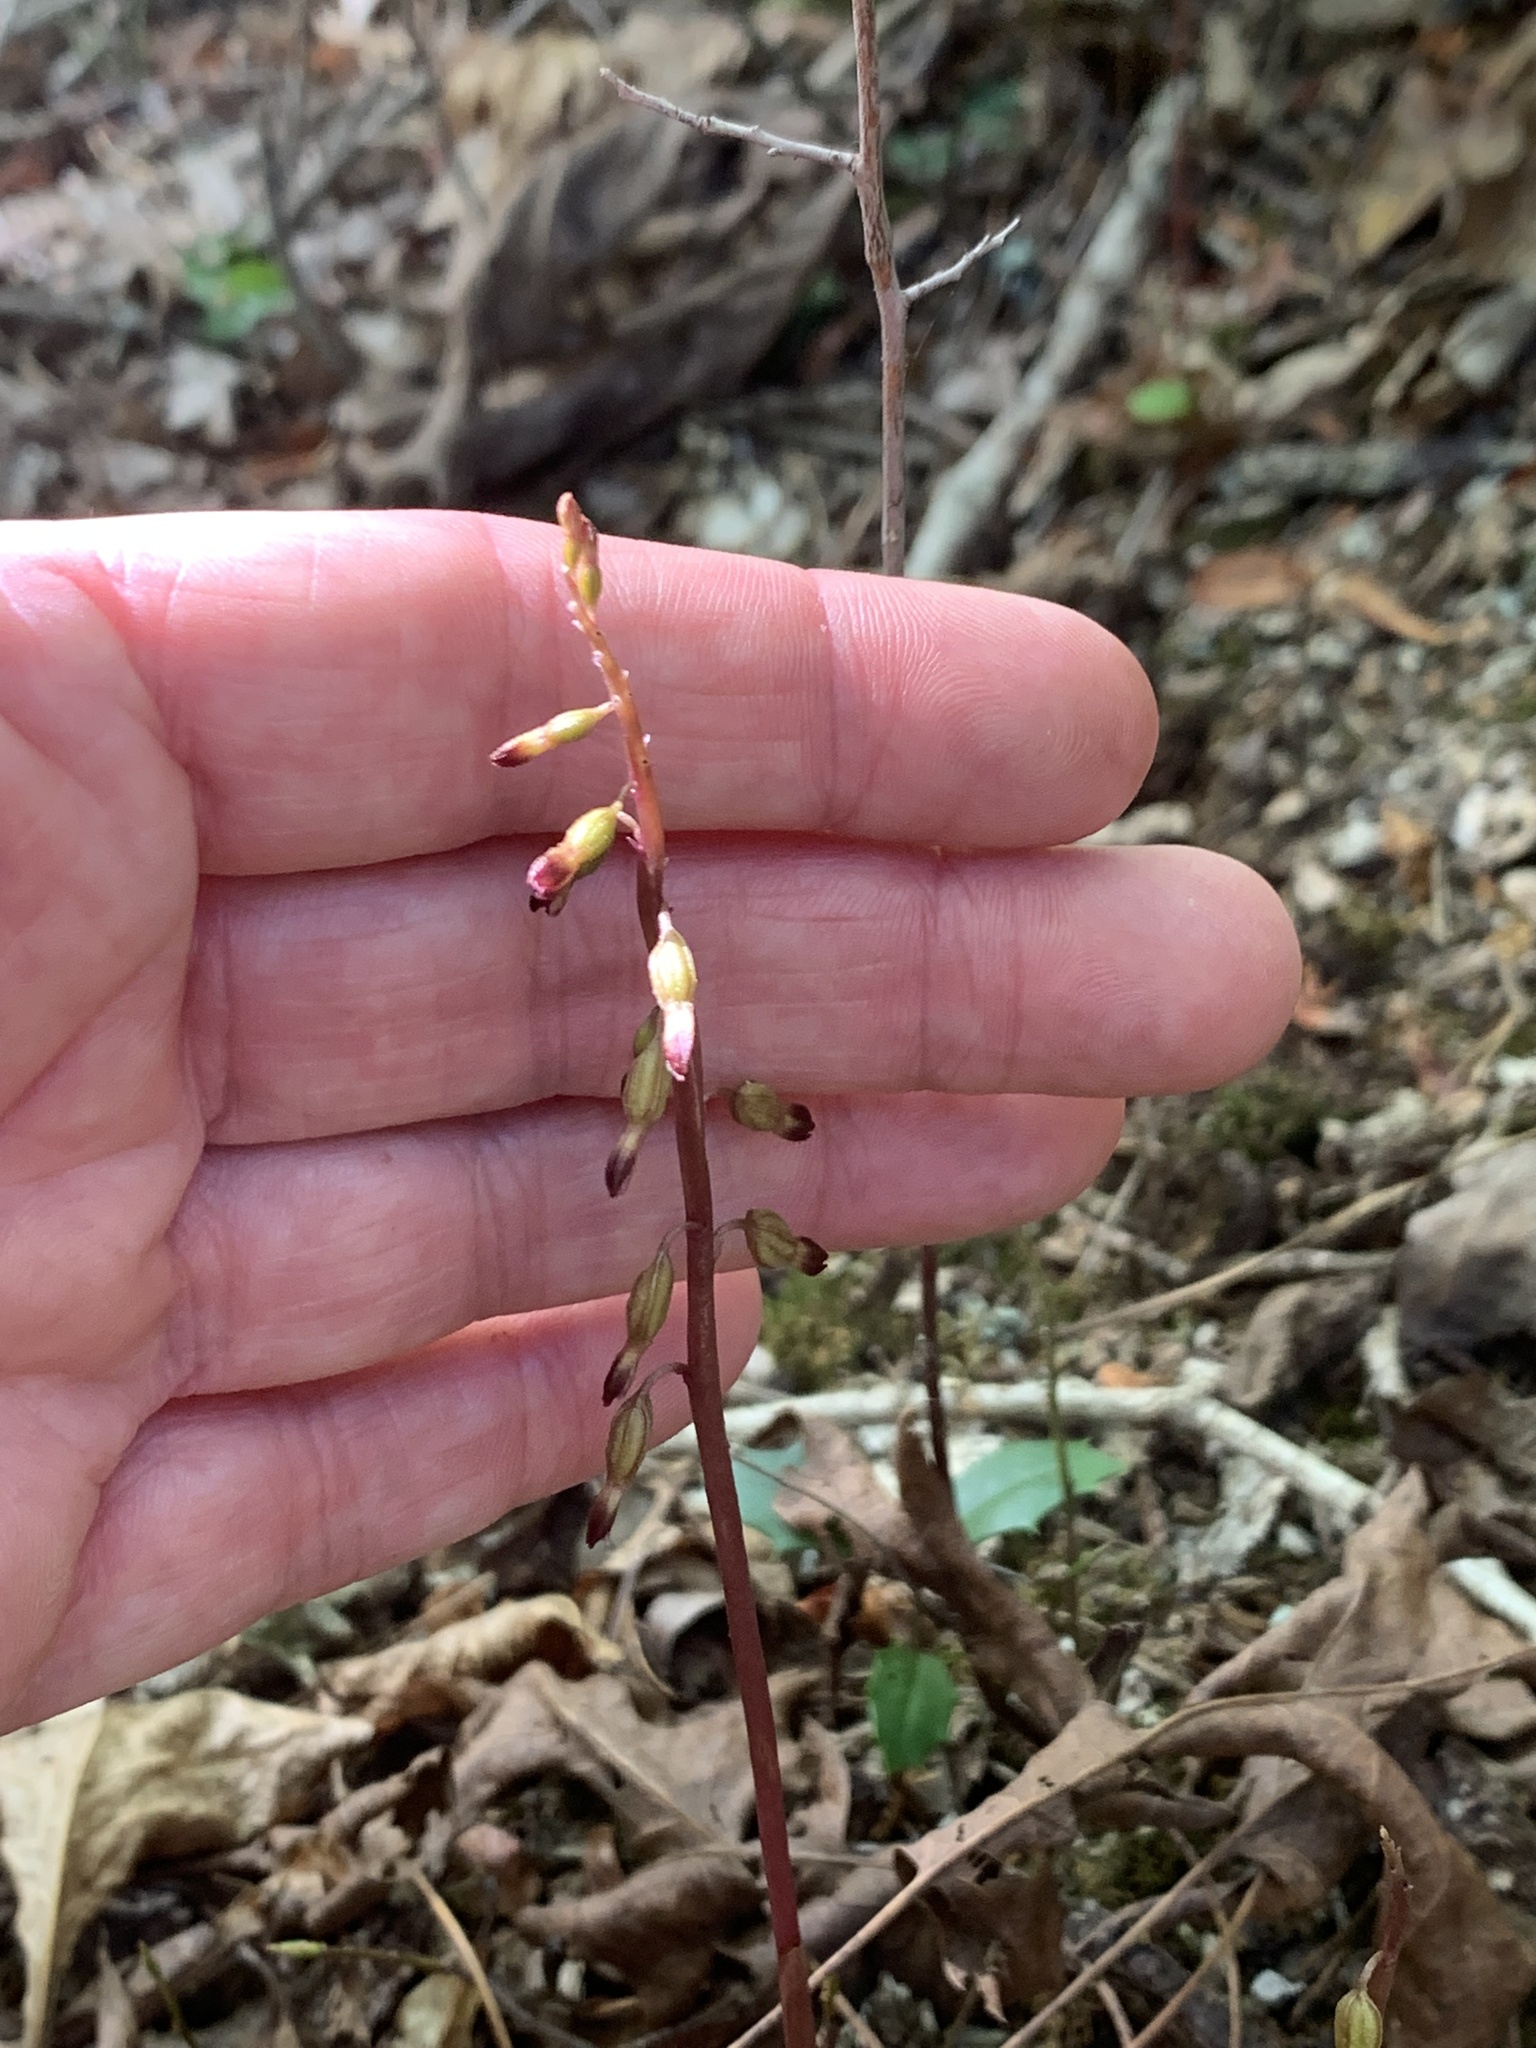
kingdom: Plantae
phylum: Tracheophyta
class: Liliopsida
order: Asparagales
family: Orchidaceae
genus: Corallorhiza
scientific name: Corallorhiza odontorhiza
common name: Autumn coralroot
